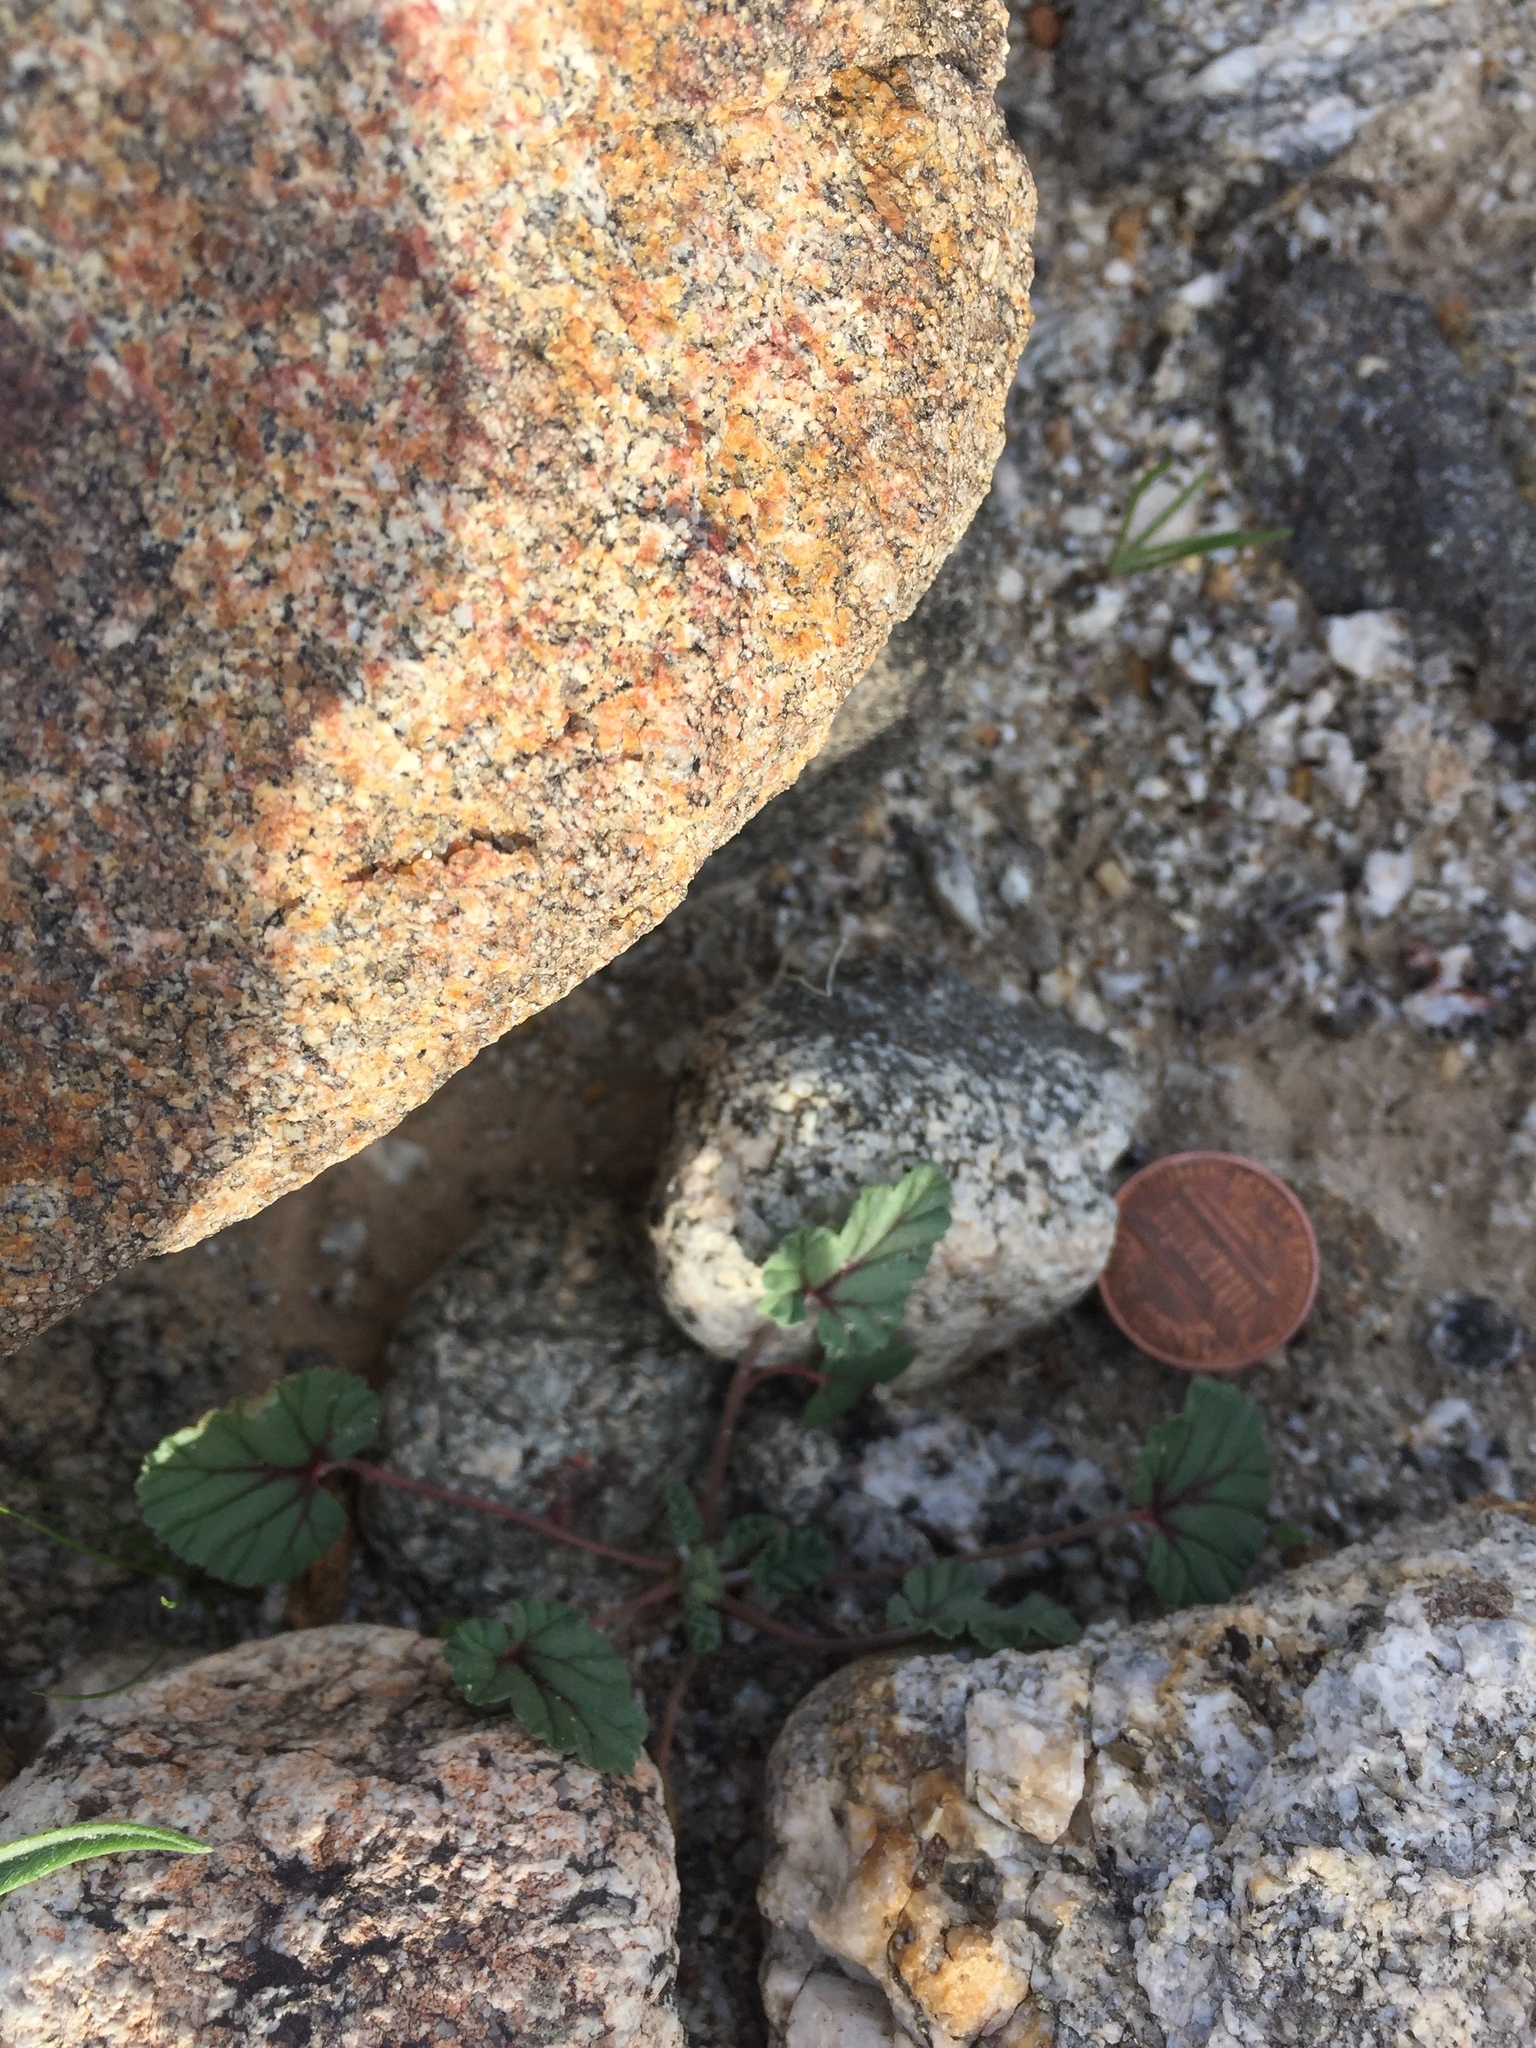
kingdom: Plantae
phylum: Tracheophyta
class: Magnoliopsida
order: Geraniales
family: Geraniaceae
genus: Erodium
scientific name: Erodium texanum
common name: Texas stork's-bill
